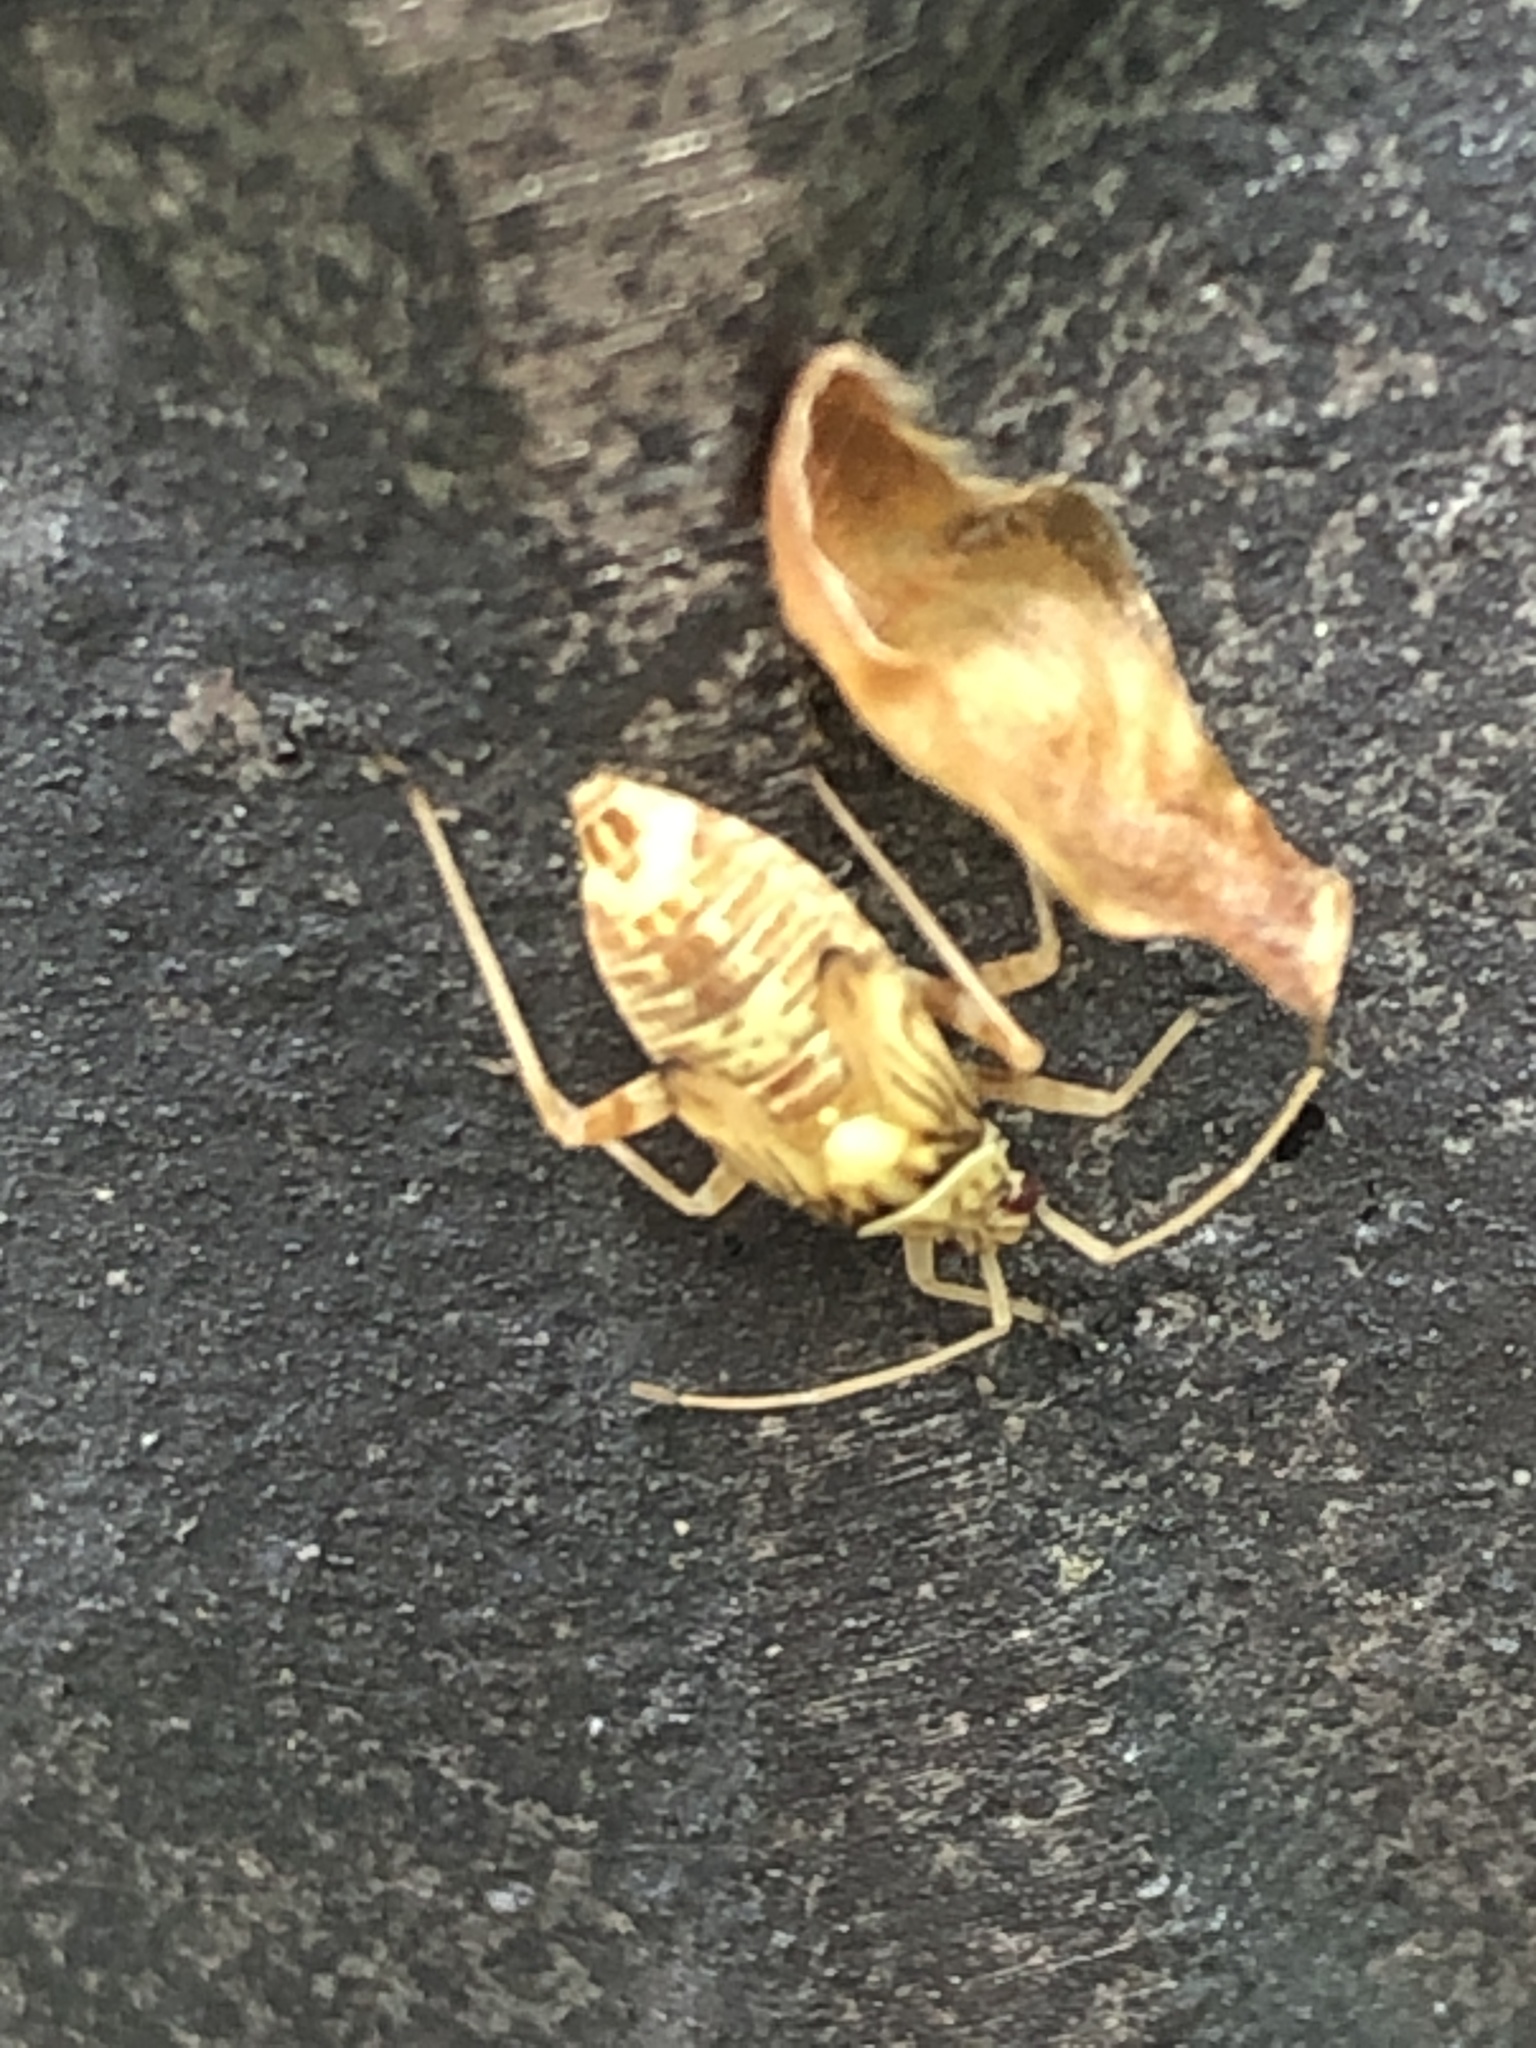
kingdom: Animalia
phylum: Arthropoda
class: Insecta
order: Hemiptera
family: Miridae
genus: Rhabdomiris
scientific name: Rhabdomiris striatellus
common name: Plant bug
